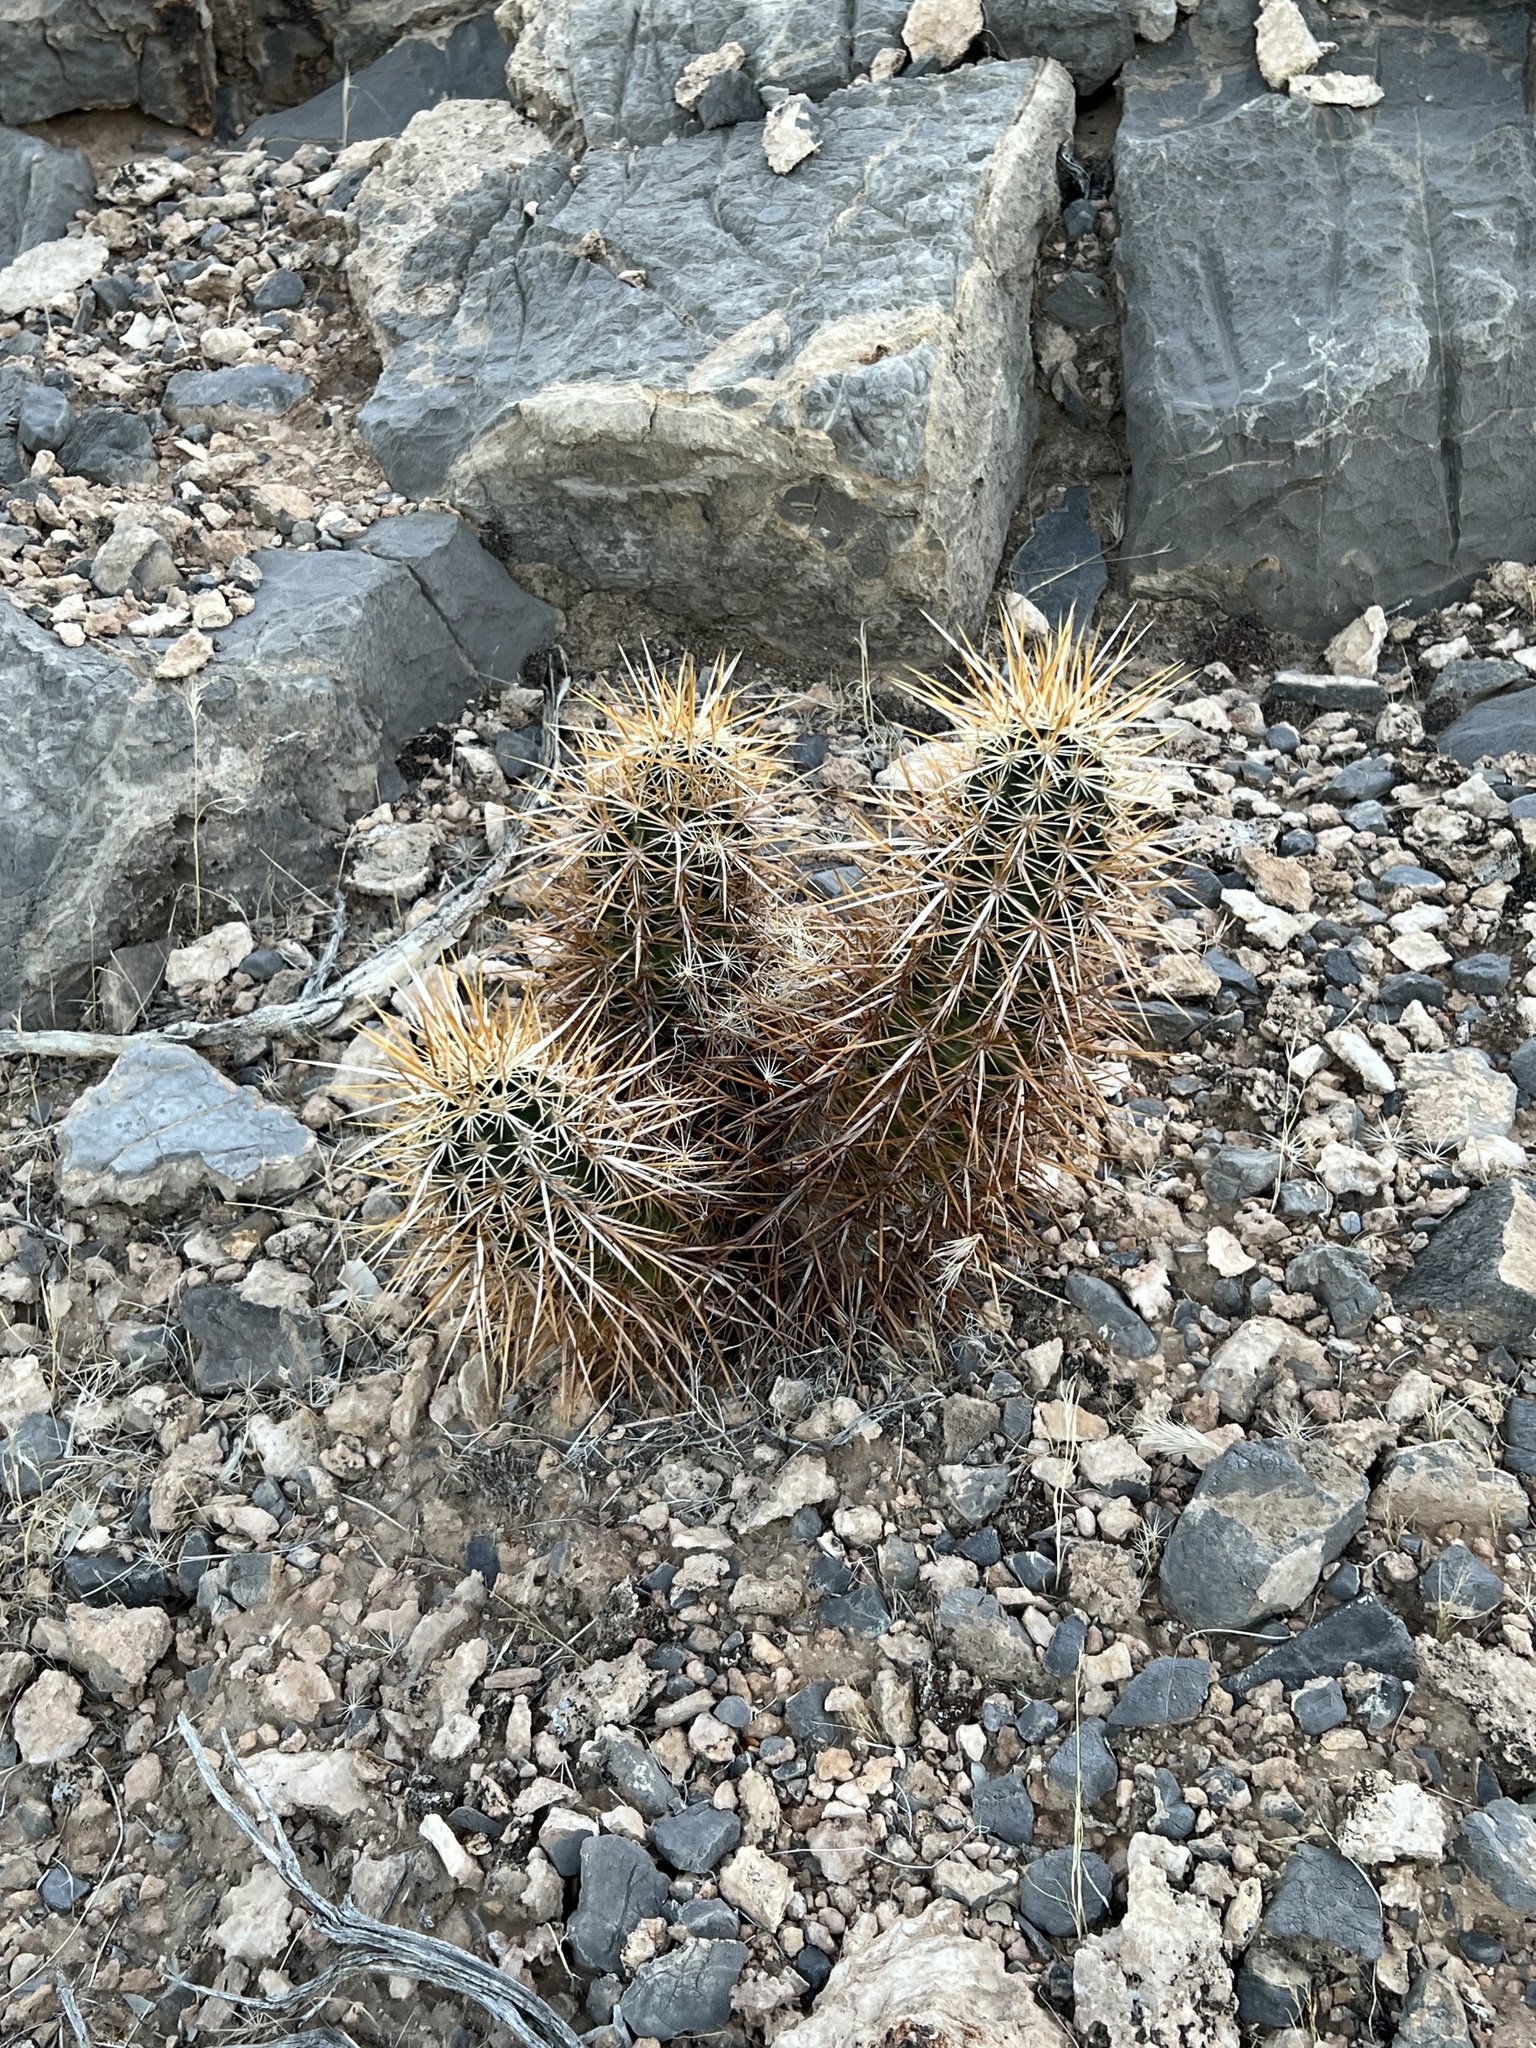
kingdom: Plantae
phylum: Tracheophyta
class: Magnoliopsida
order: Caryophyllales
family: Cactaceae
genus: Echinocereus
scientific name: Echinocereus engelmannii
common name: Engelmann's hedgehog cactus
